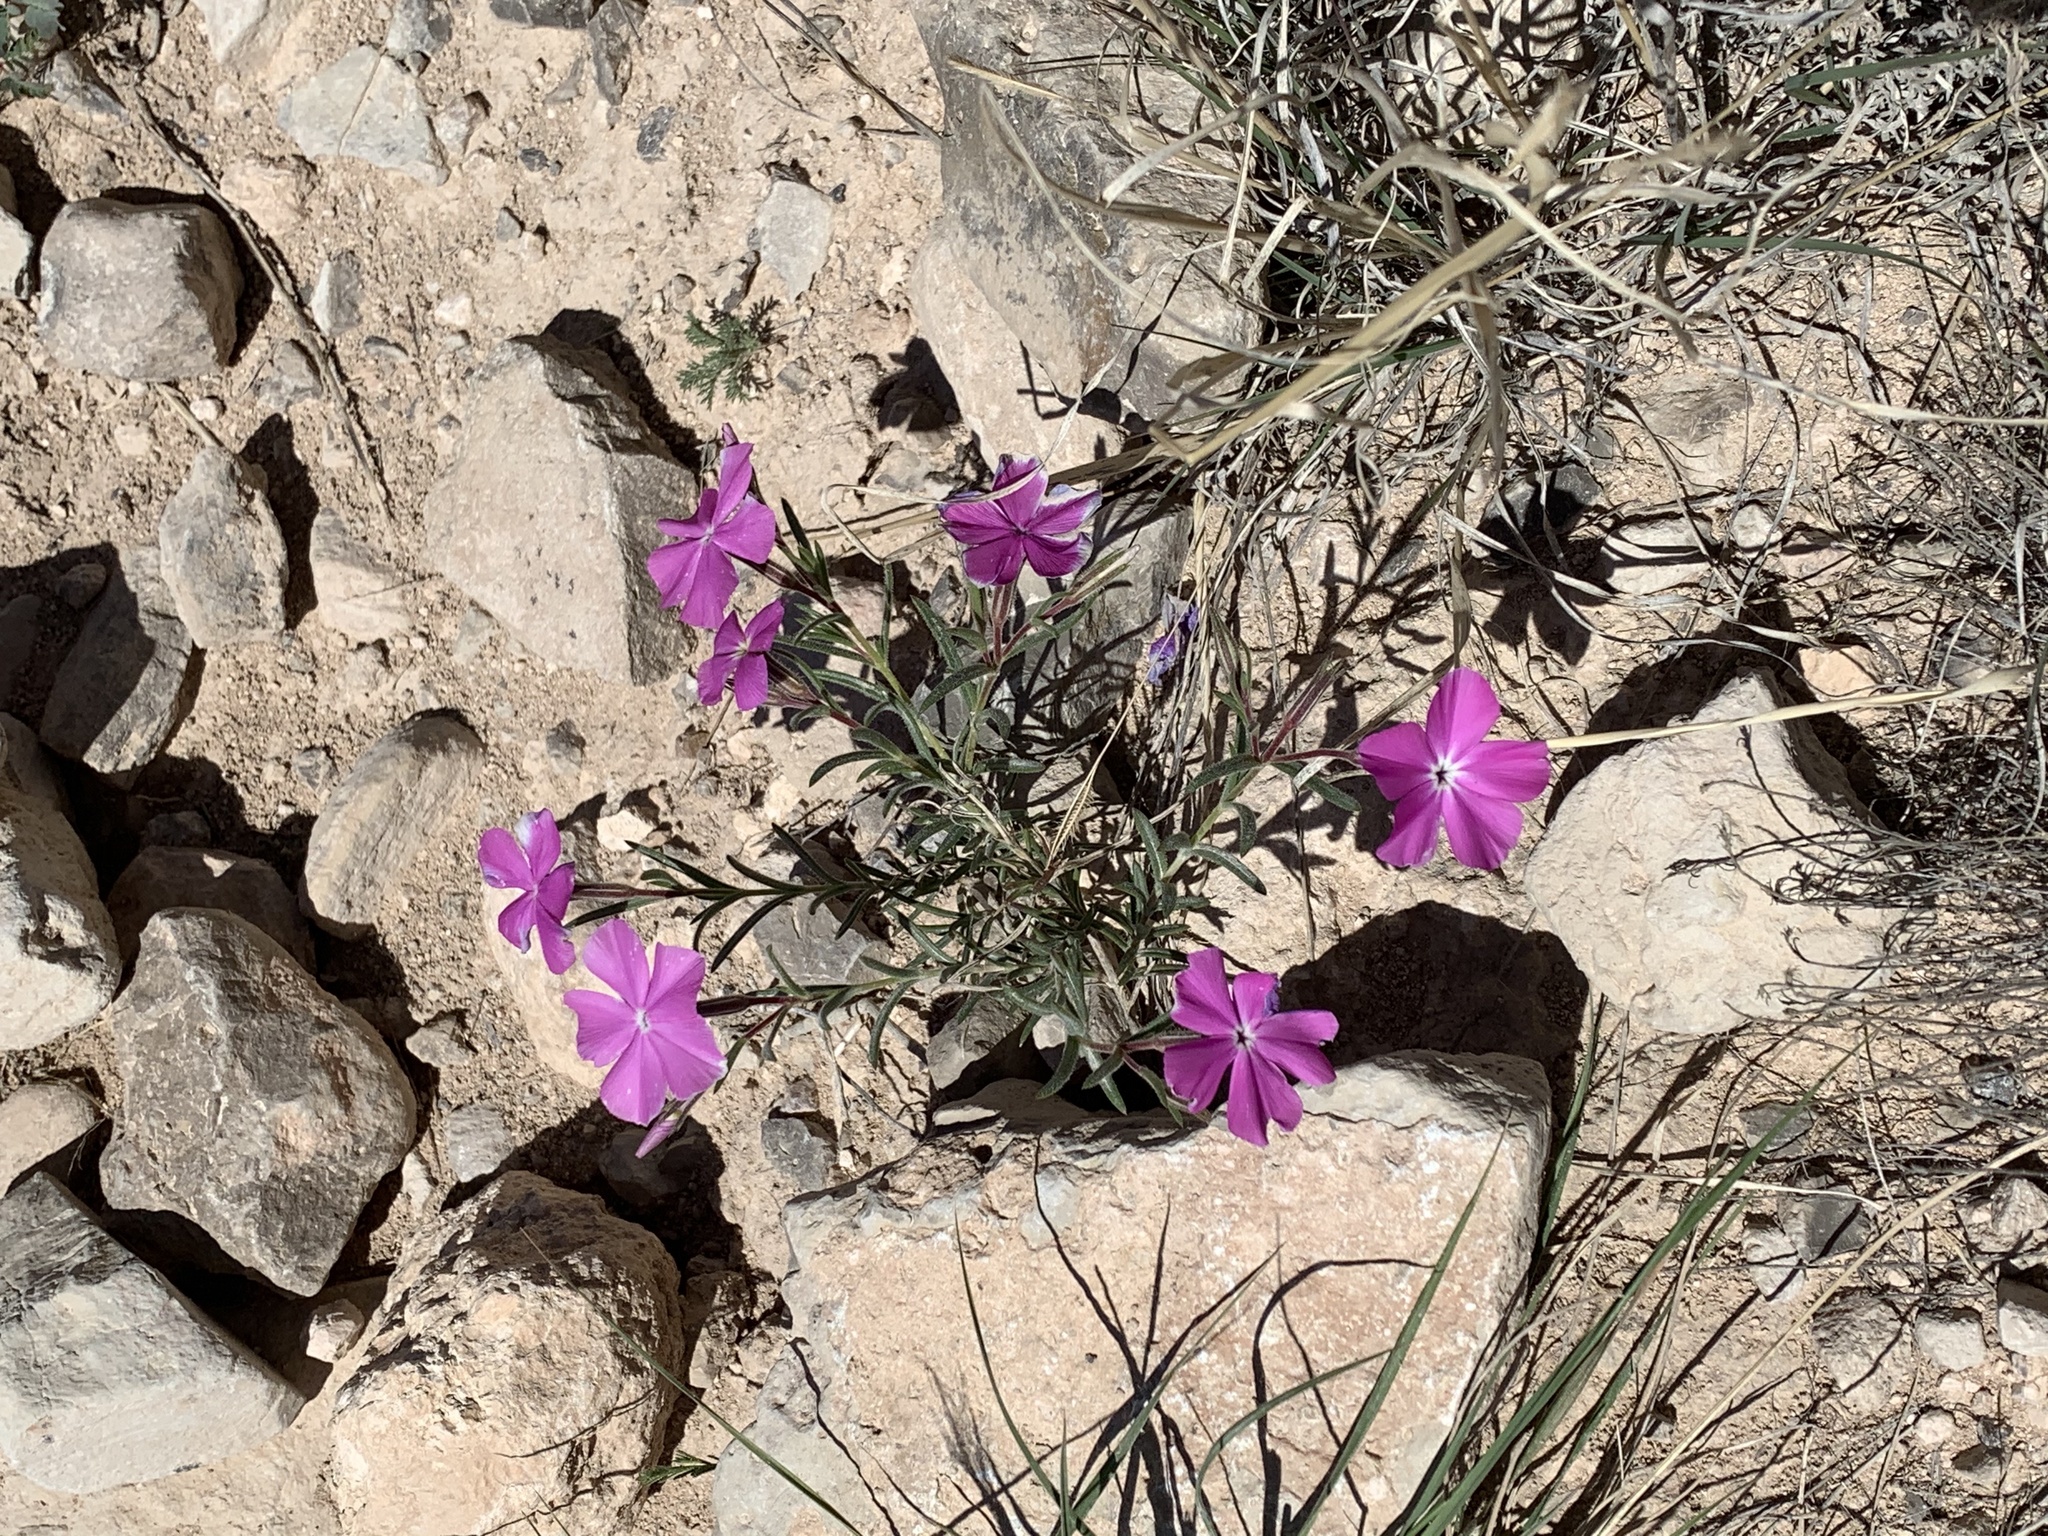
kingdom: Plantae
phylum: Tracheophyta
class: Magnoliopsida
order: Ericales
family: Polemoniaceae
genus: Phlox
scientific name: Phlox nana
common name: Santa fe phlox
